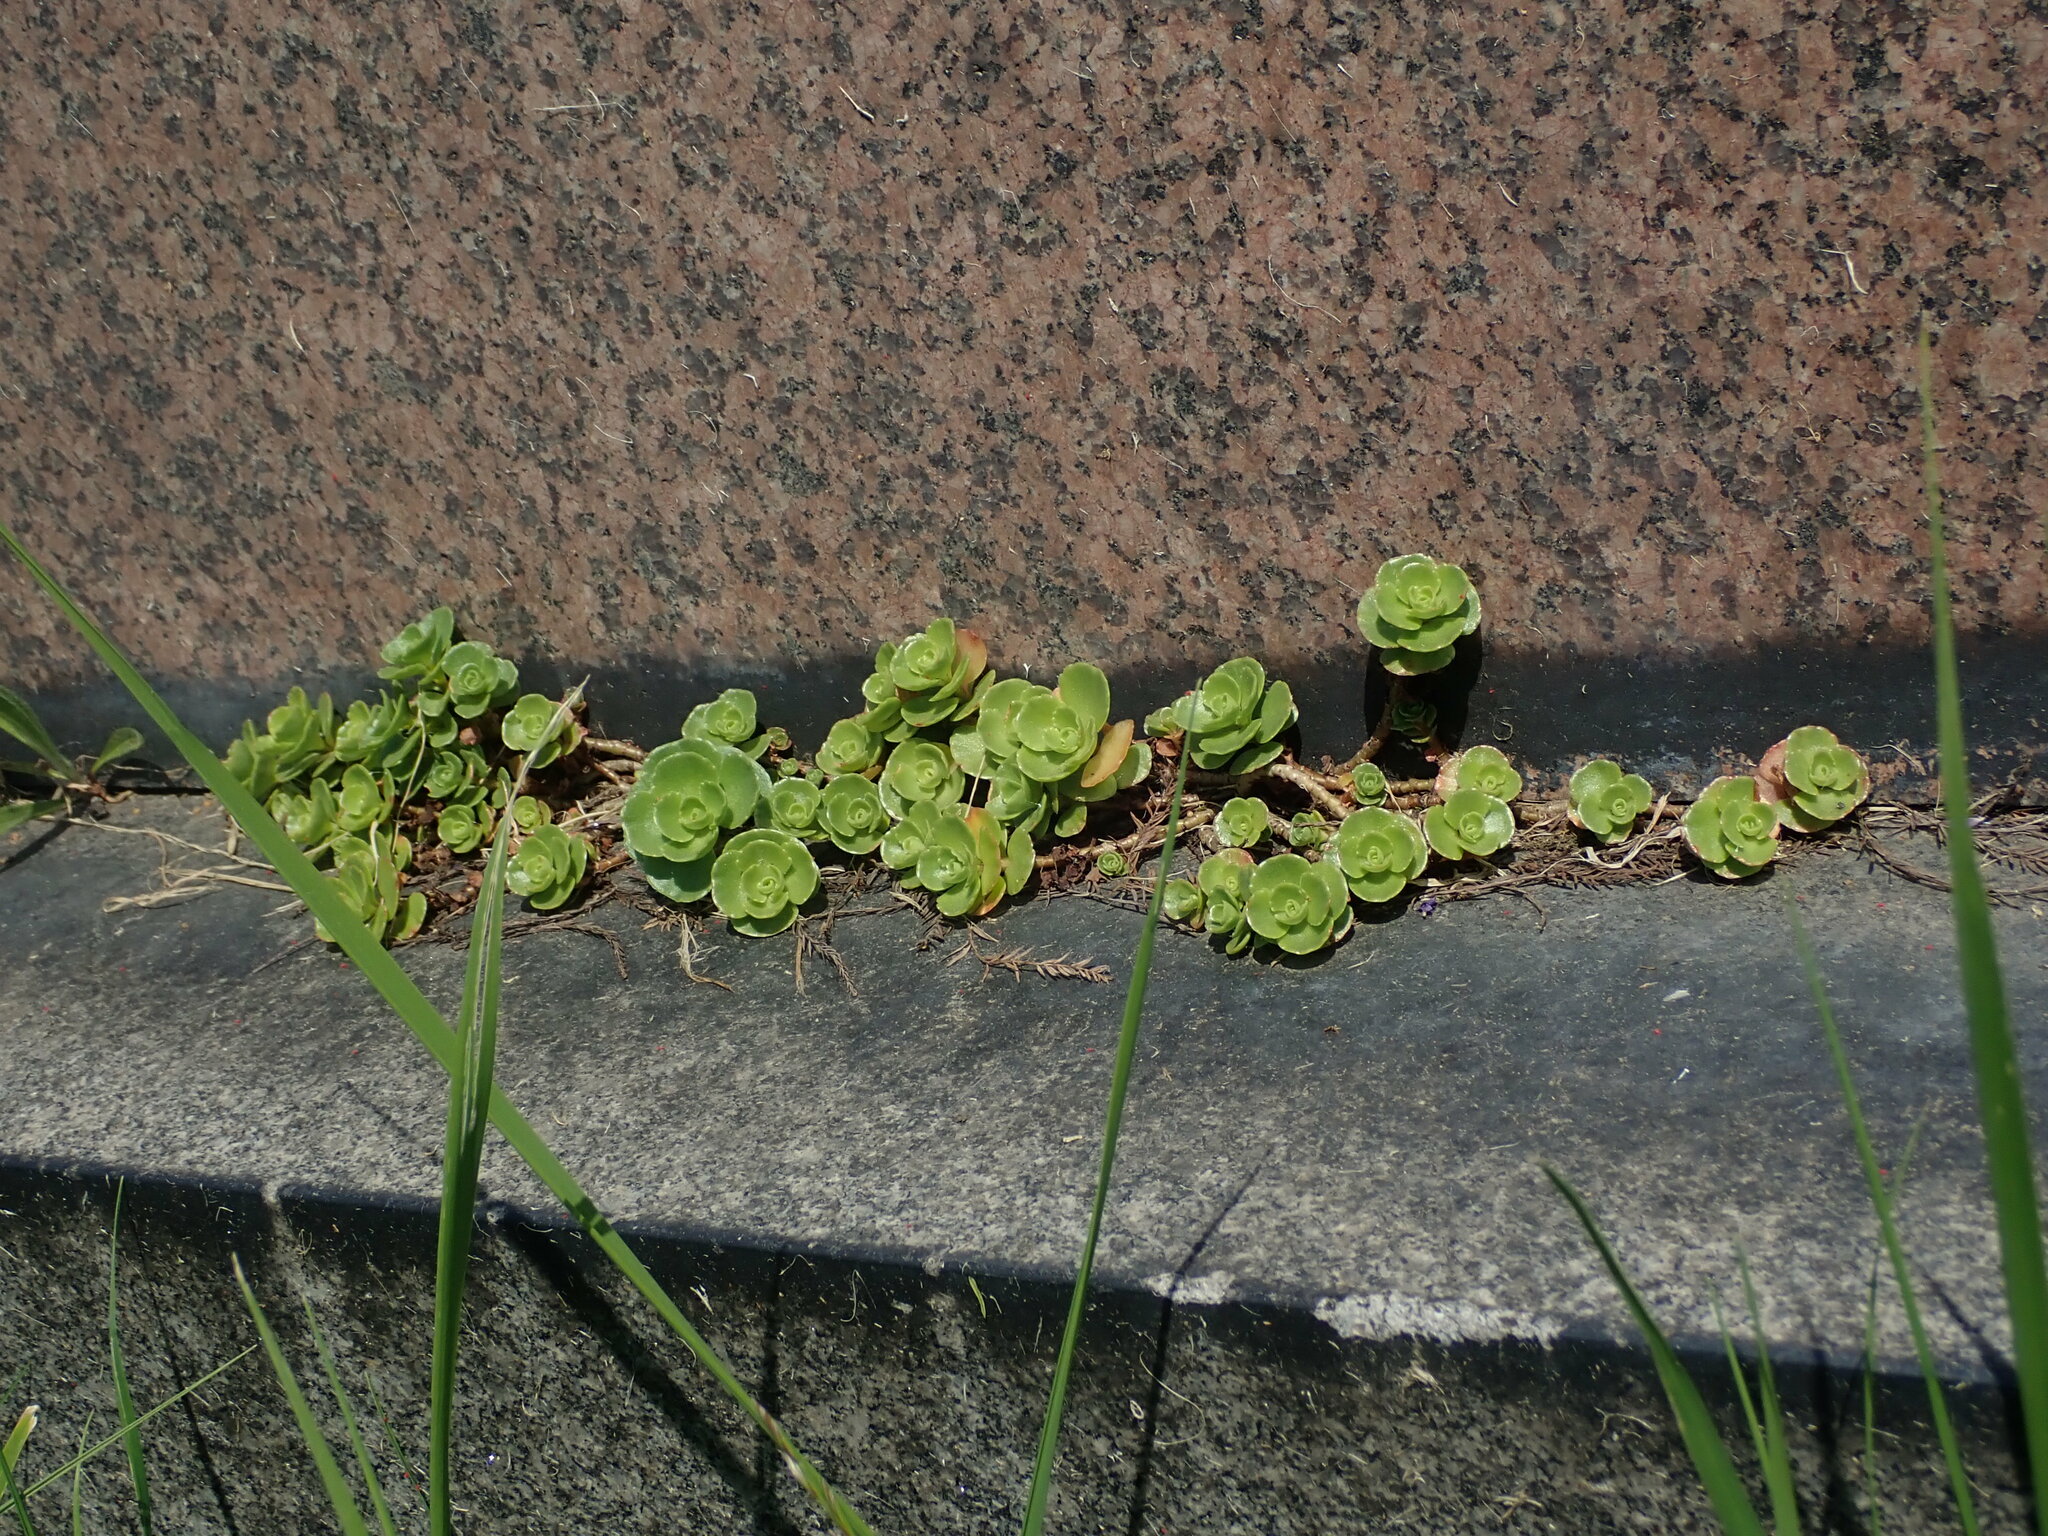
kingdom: Plantae
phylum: Tracheophyta
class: Magnoliopsida
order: Saxifragales
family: Crassulaceae
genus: Phedimus
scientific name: Phedimus spurius
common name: Caucasian stonecrop
